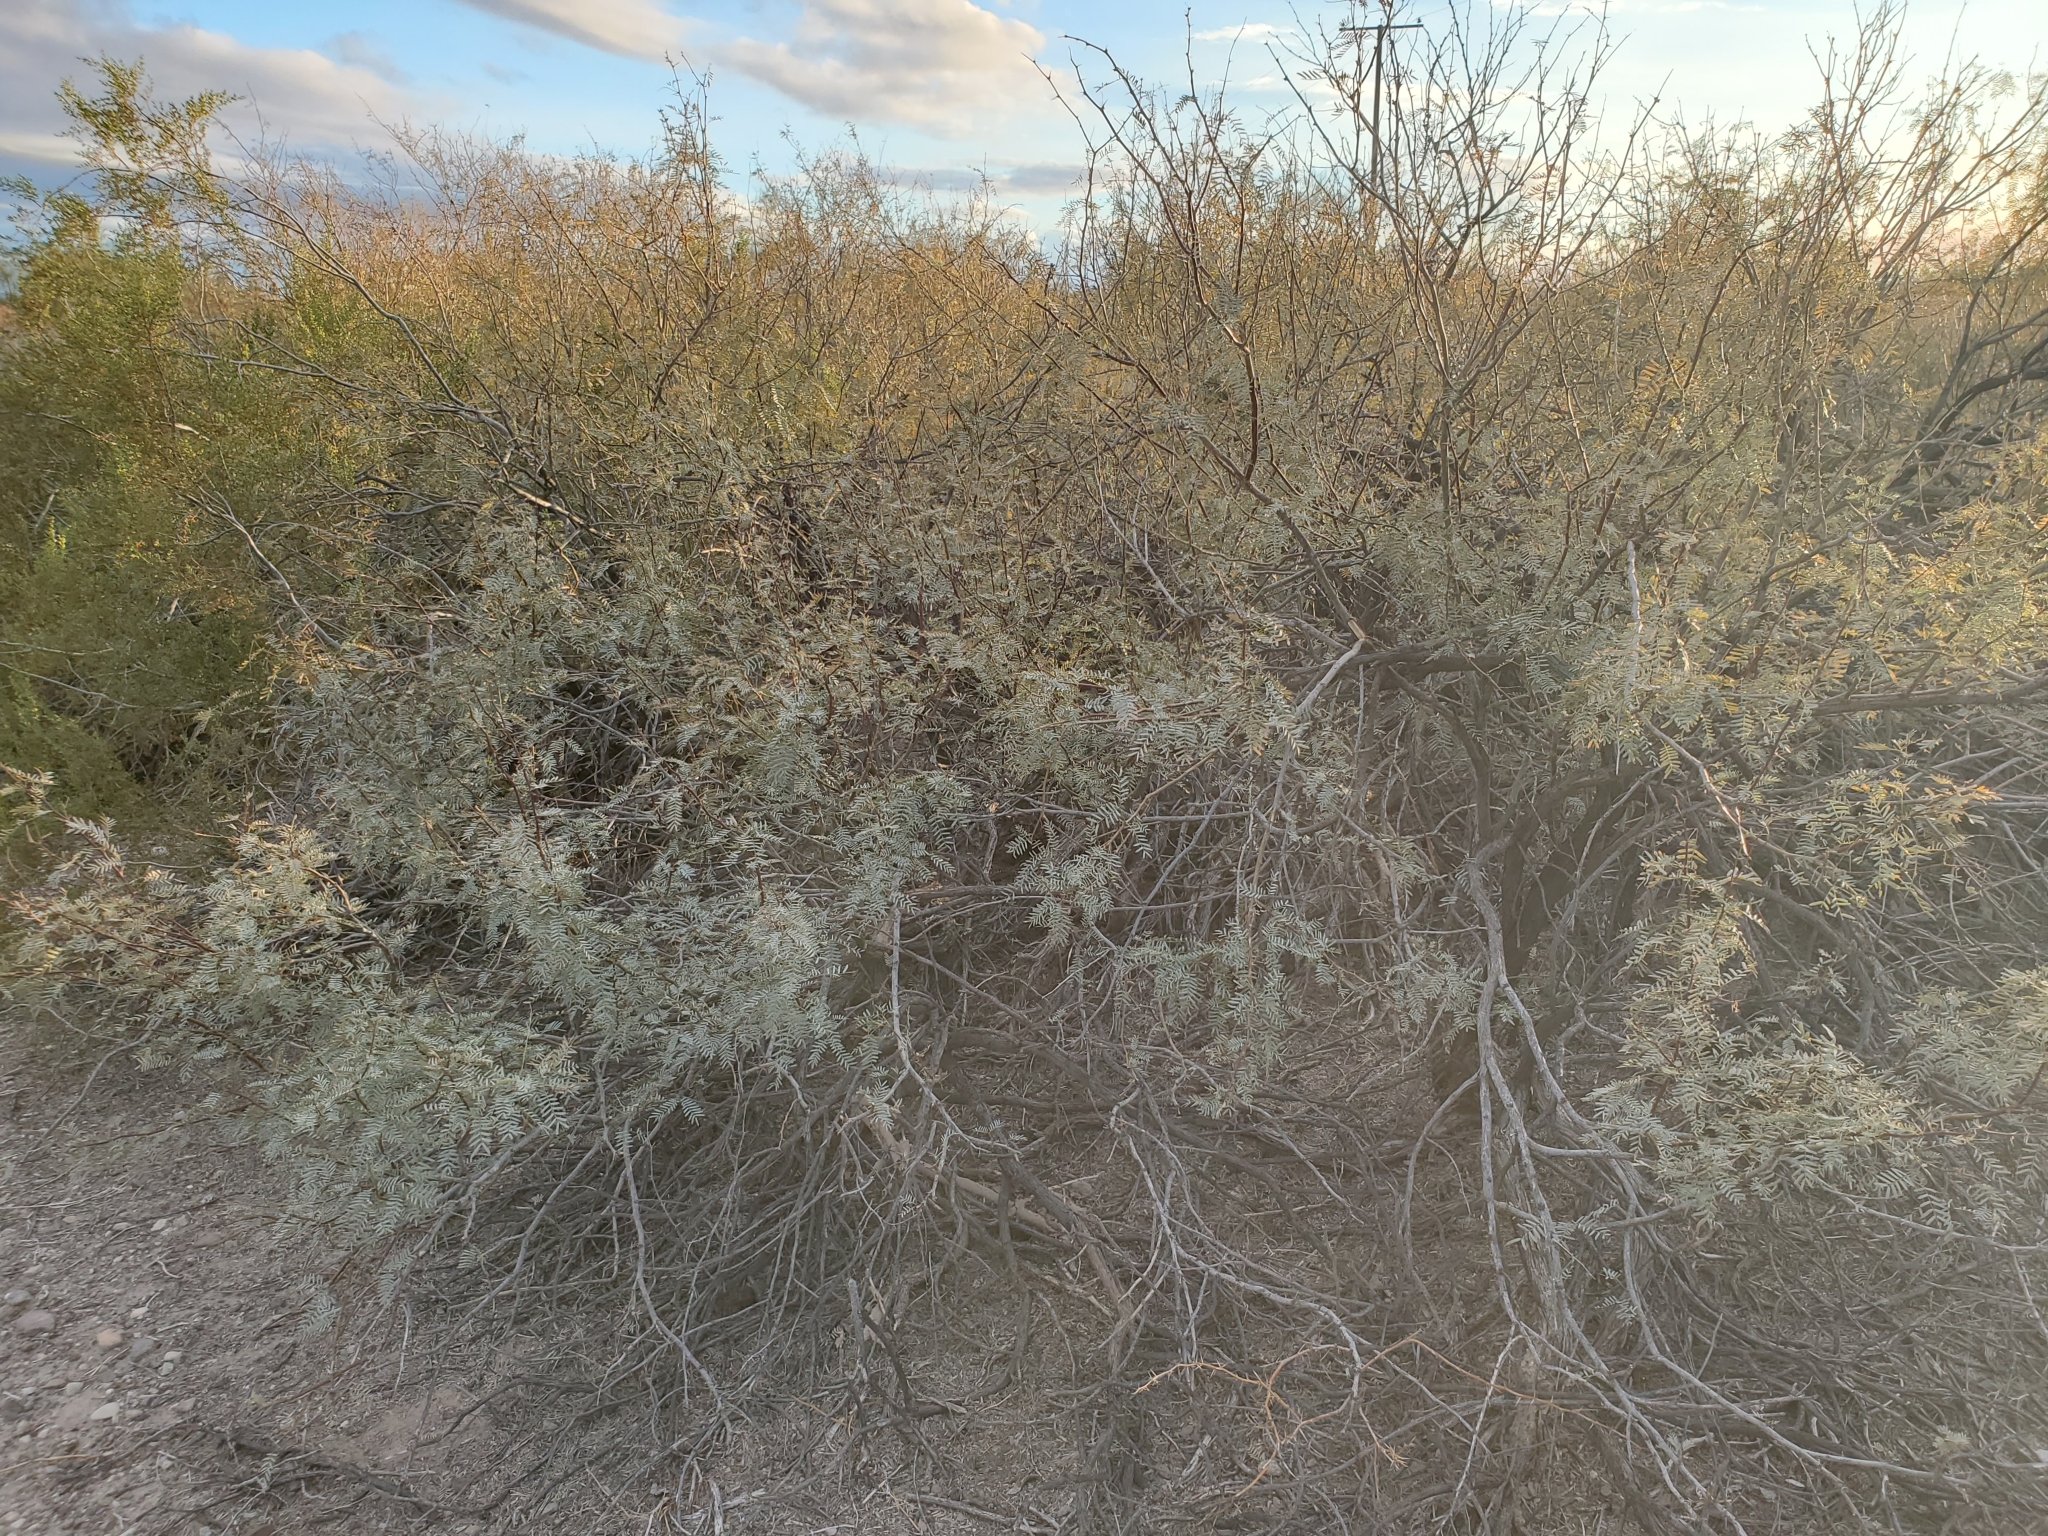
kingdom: Plantae
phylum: Tracheophyta
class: Magnoliopsida
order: Fabales
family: Fabaceae
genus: Prosopis
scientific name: Prosopis pubescens
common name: Screw-bean
